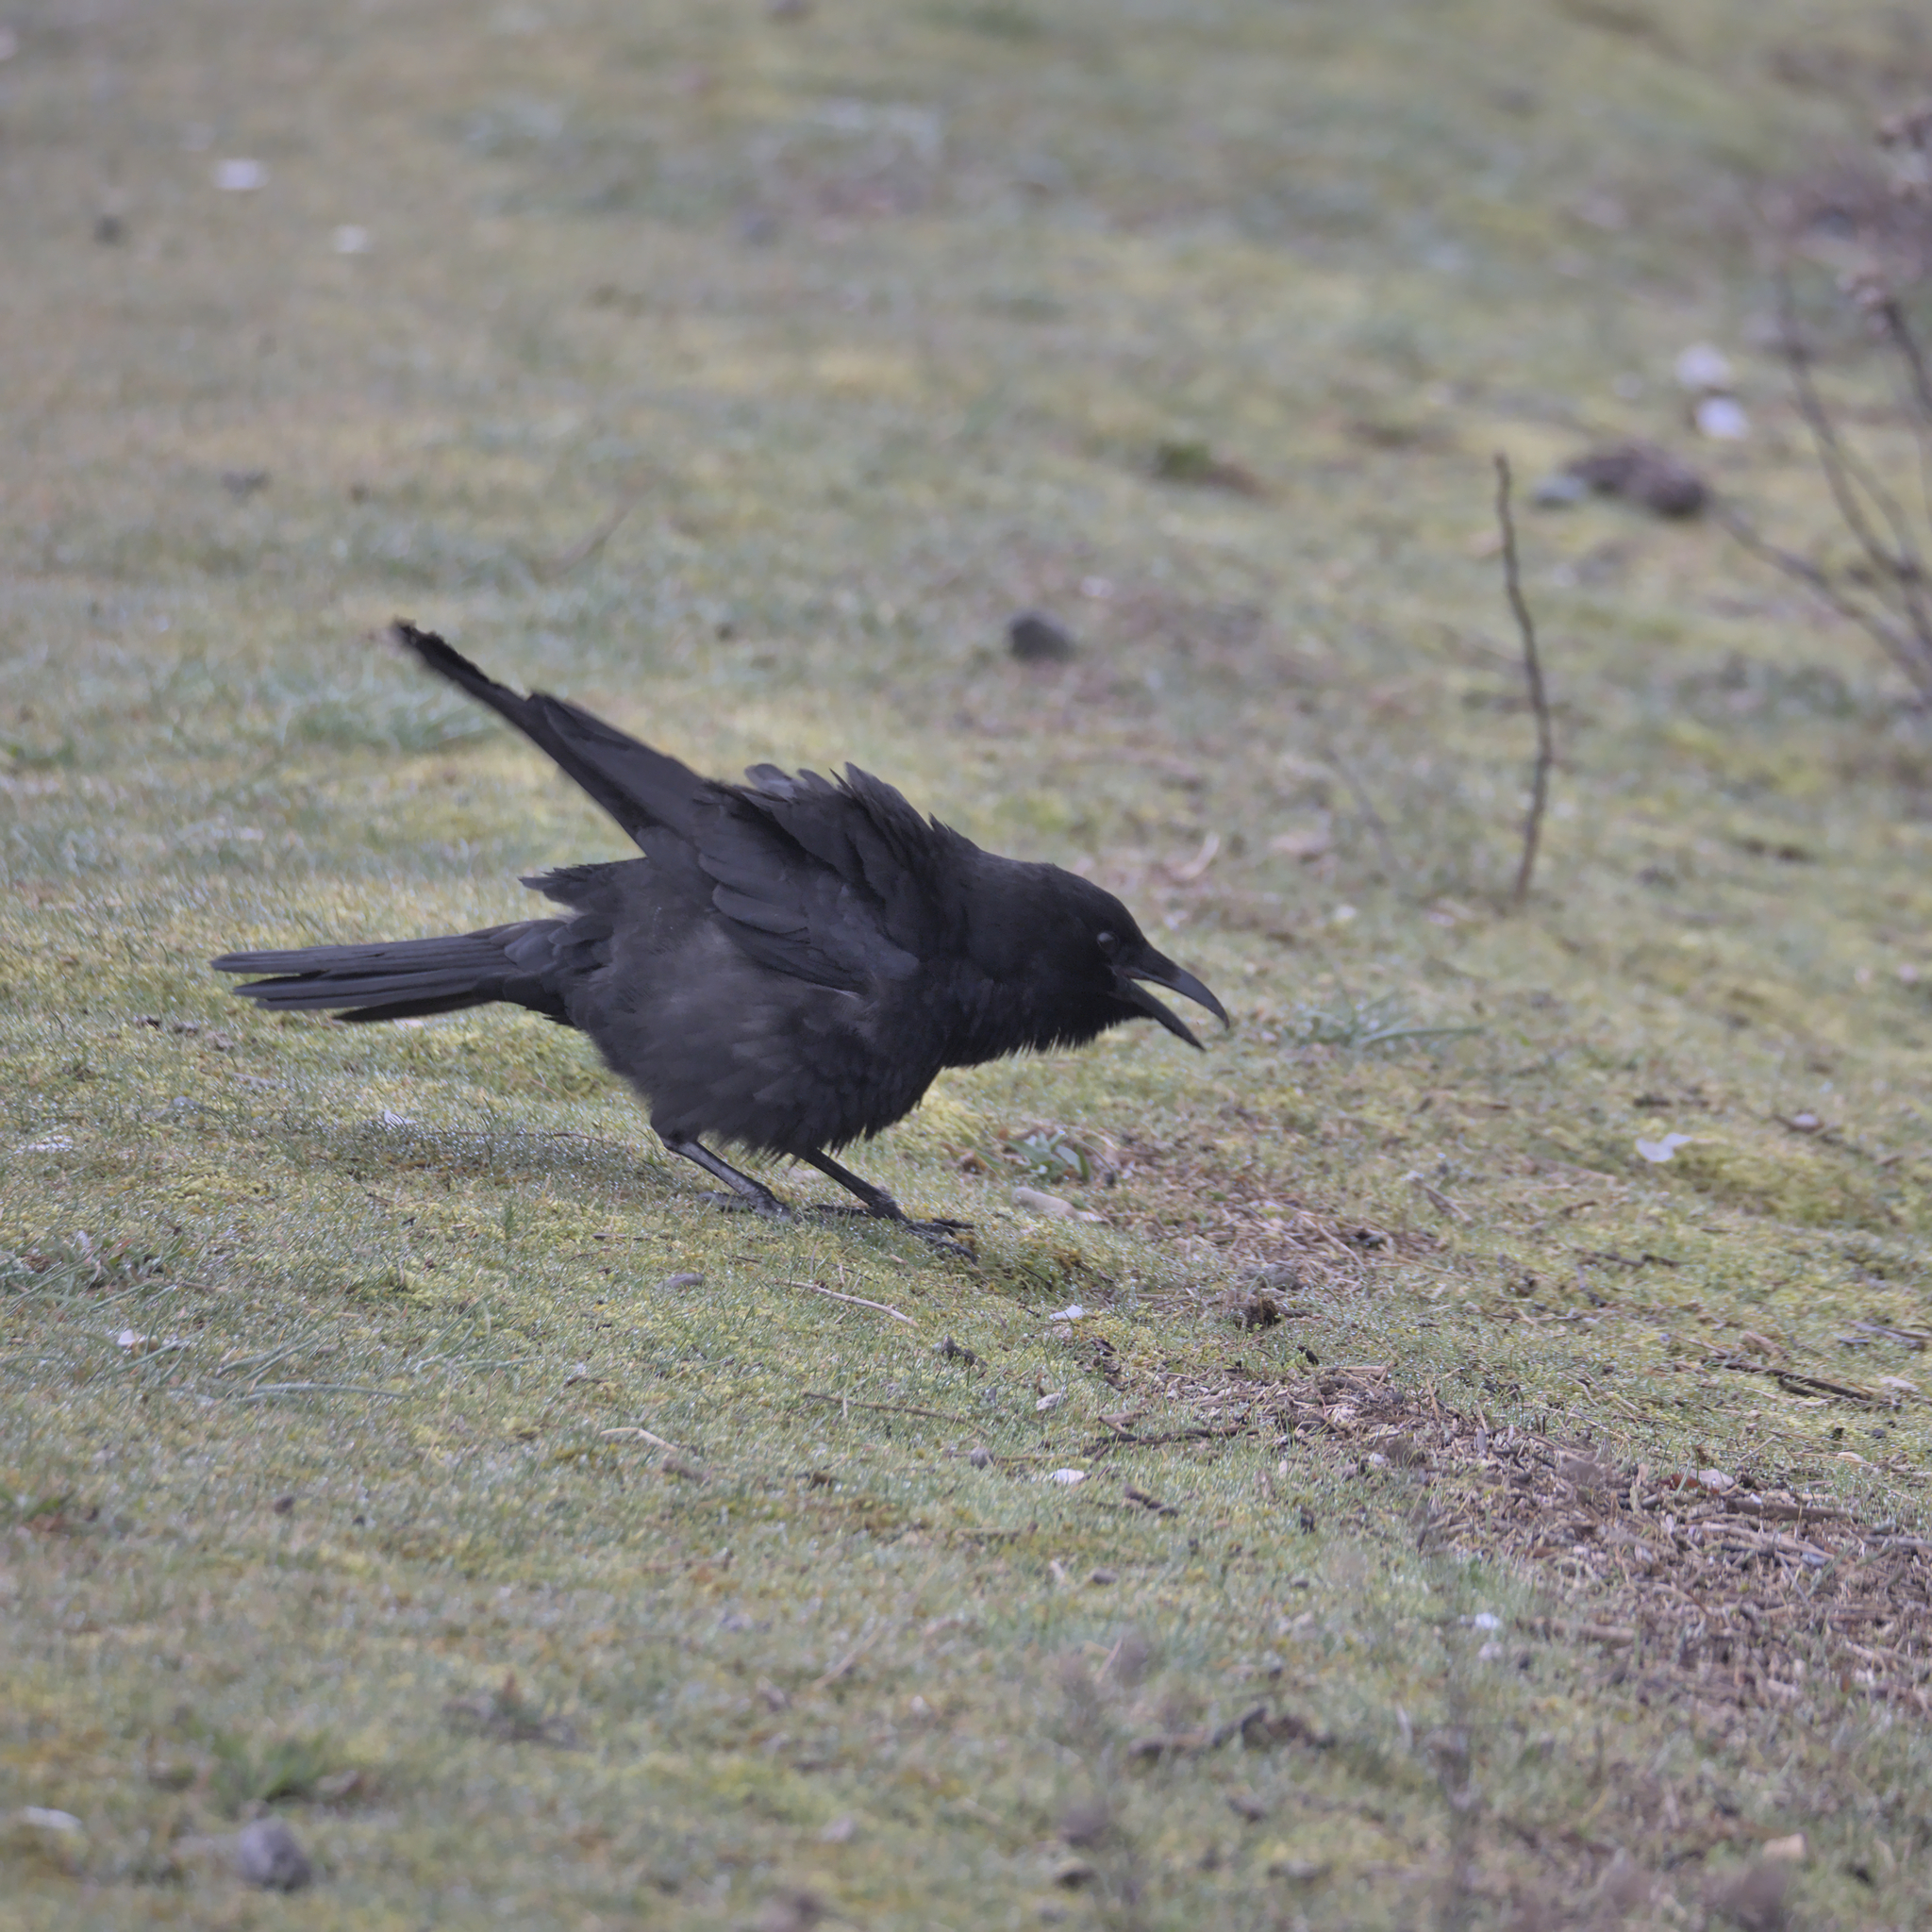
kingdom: Animalia
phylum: Chordata
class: Aves
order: Passeriformes
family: Corvidae
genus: Corvus
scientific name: Corvus brachyrhynchos
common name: American crow
